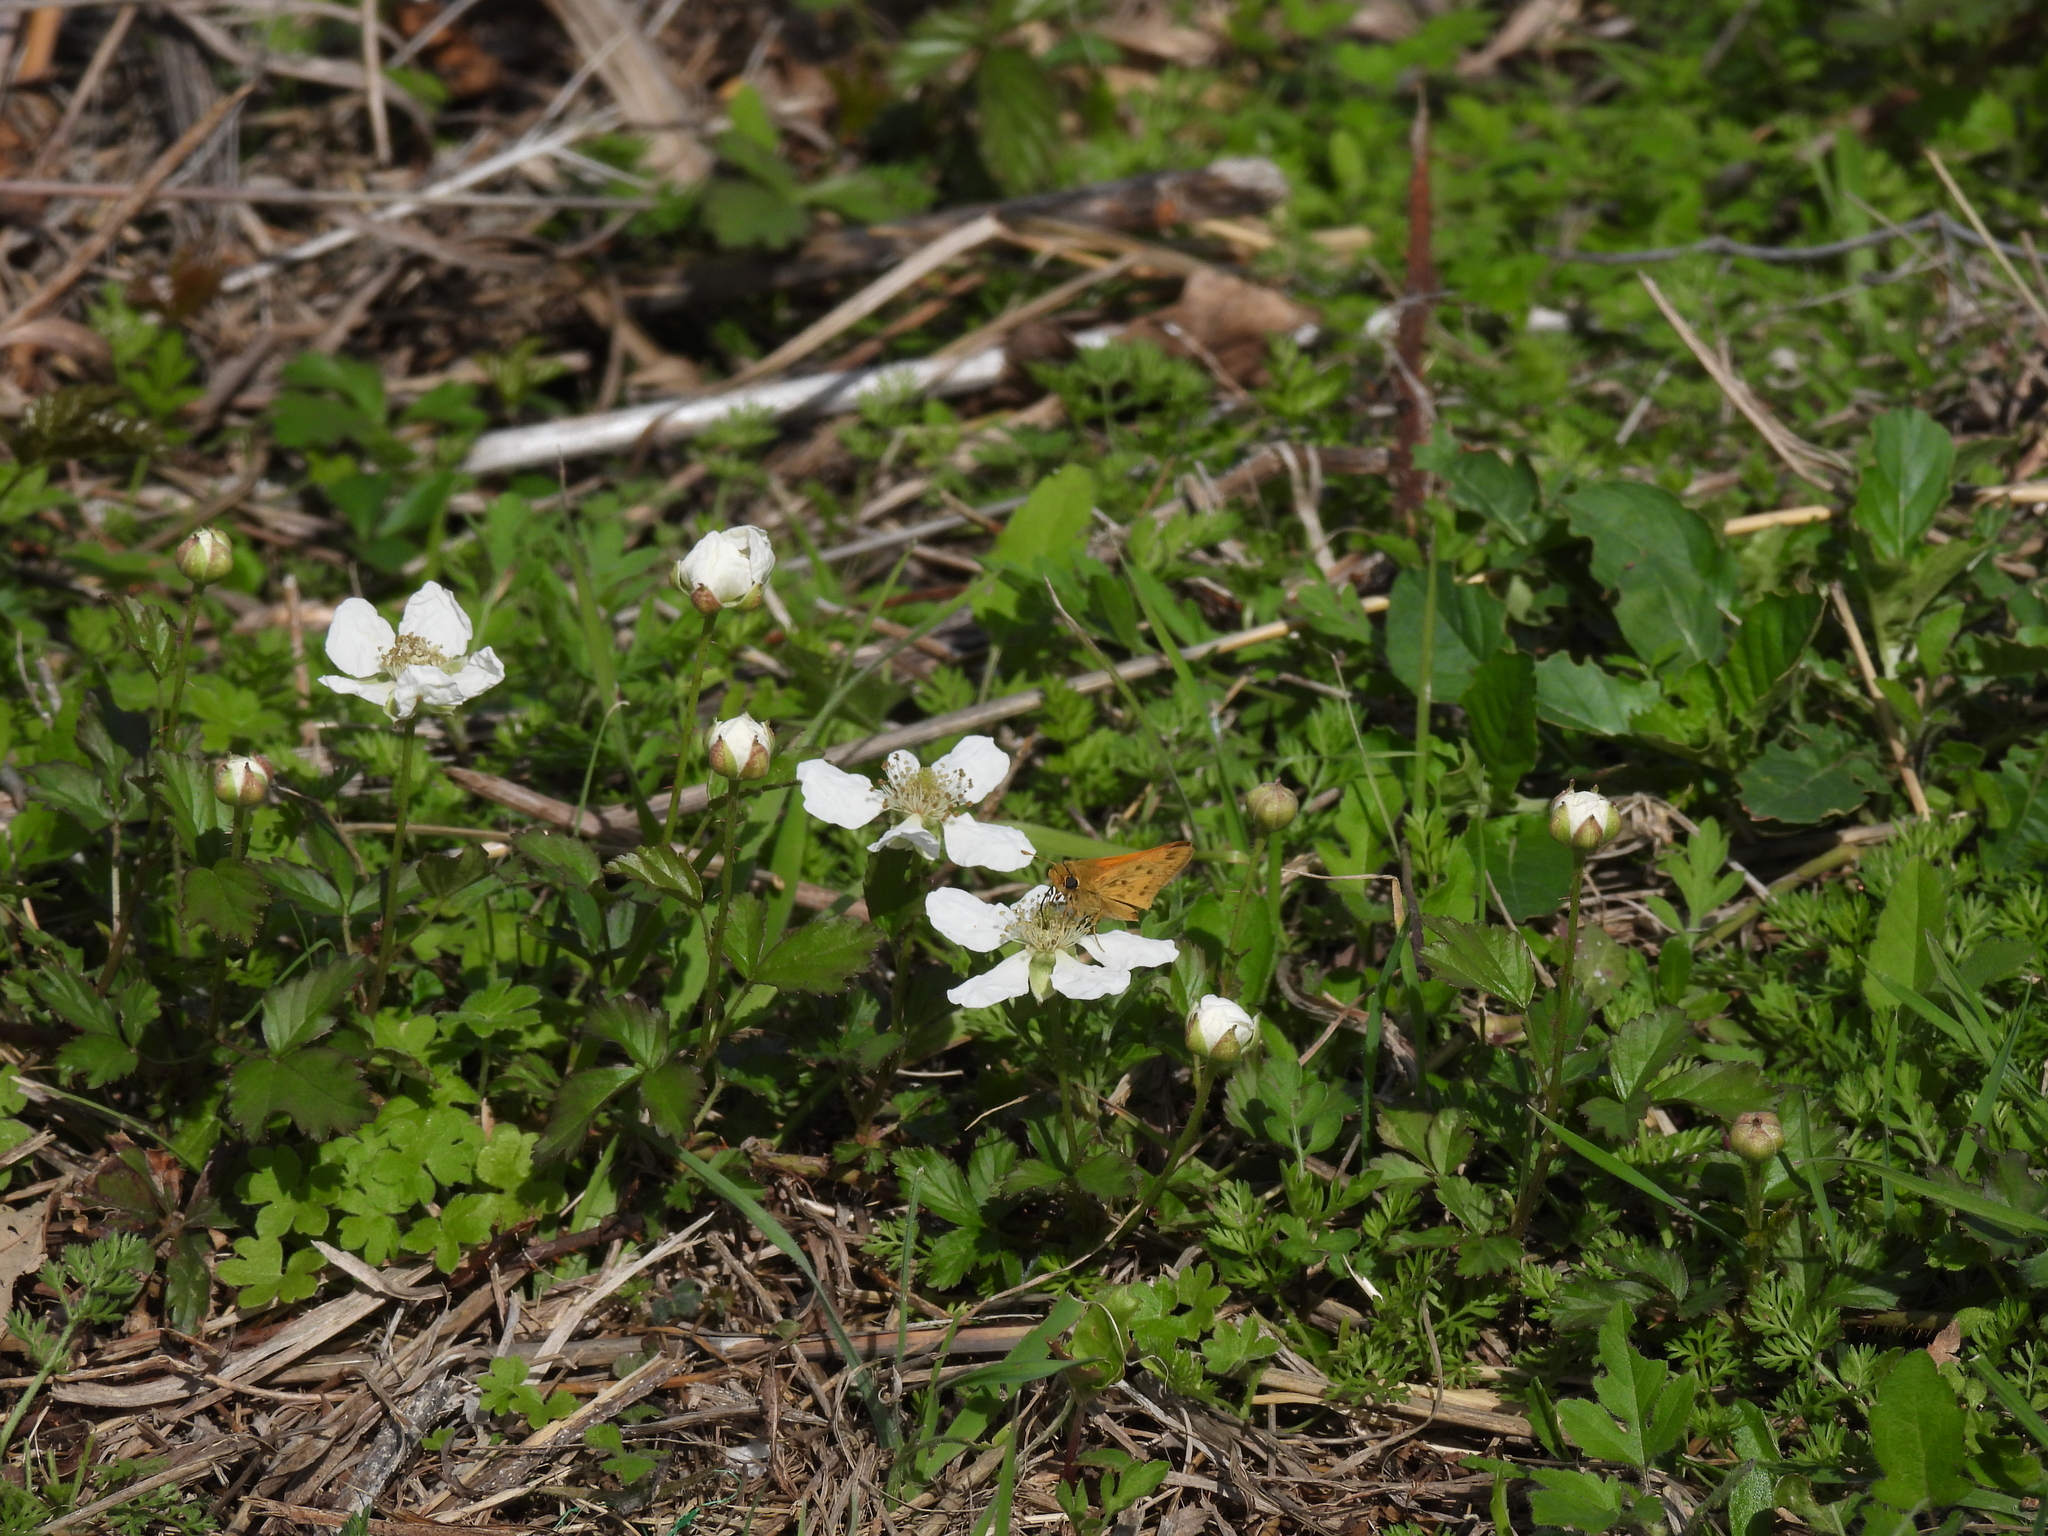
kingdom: Animalia
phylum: Arthropoda
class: Insecta
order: Lepidoptera
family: Hesperiidae
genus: Hylephila
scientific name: Hylephila phyleus
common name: Fiery skipper
